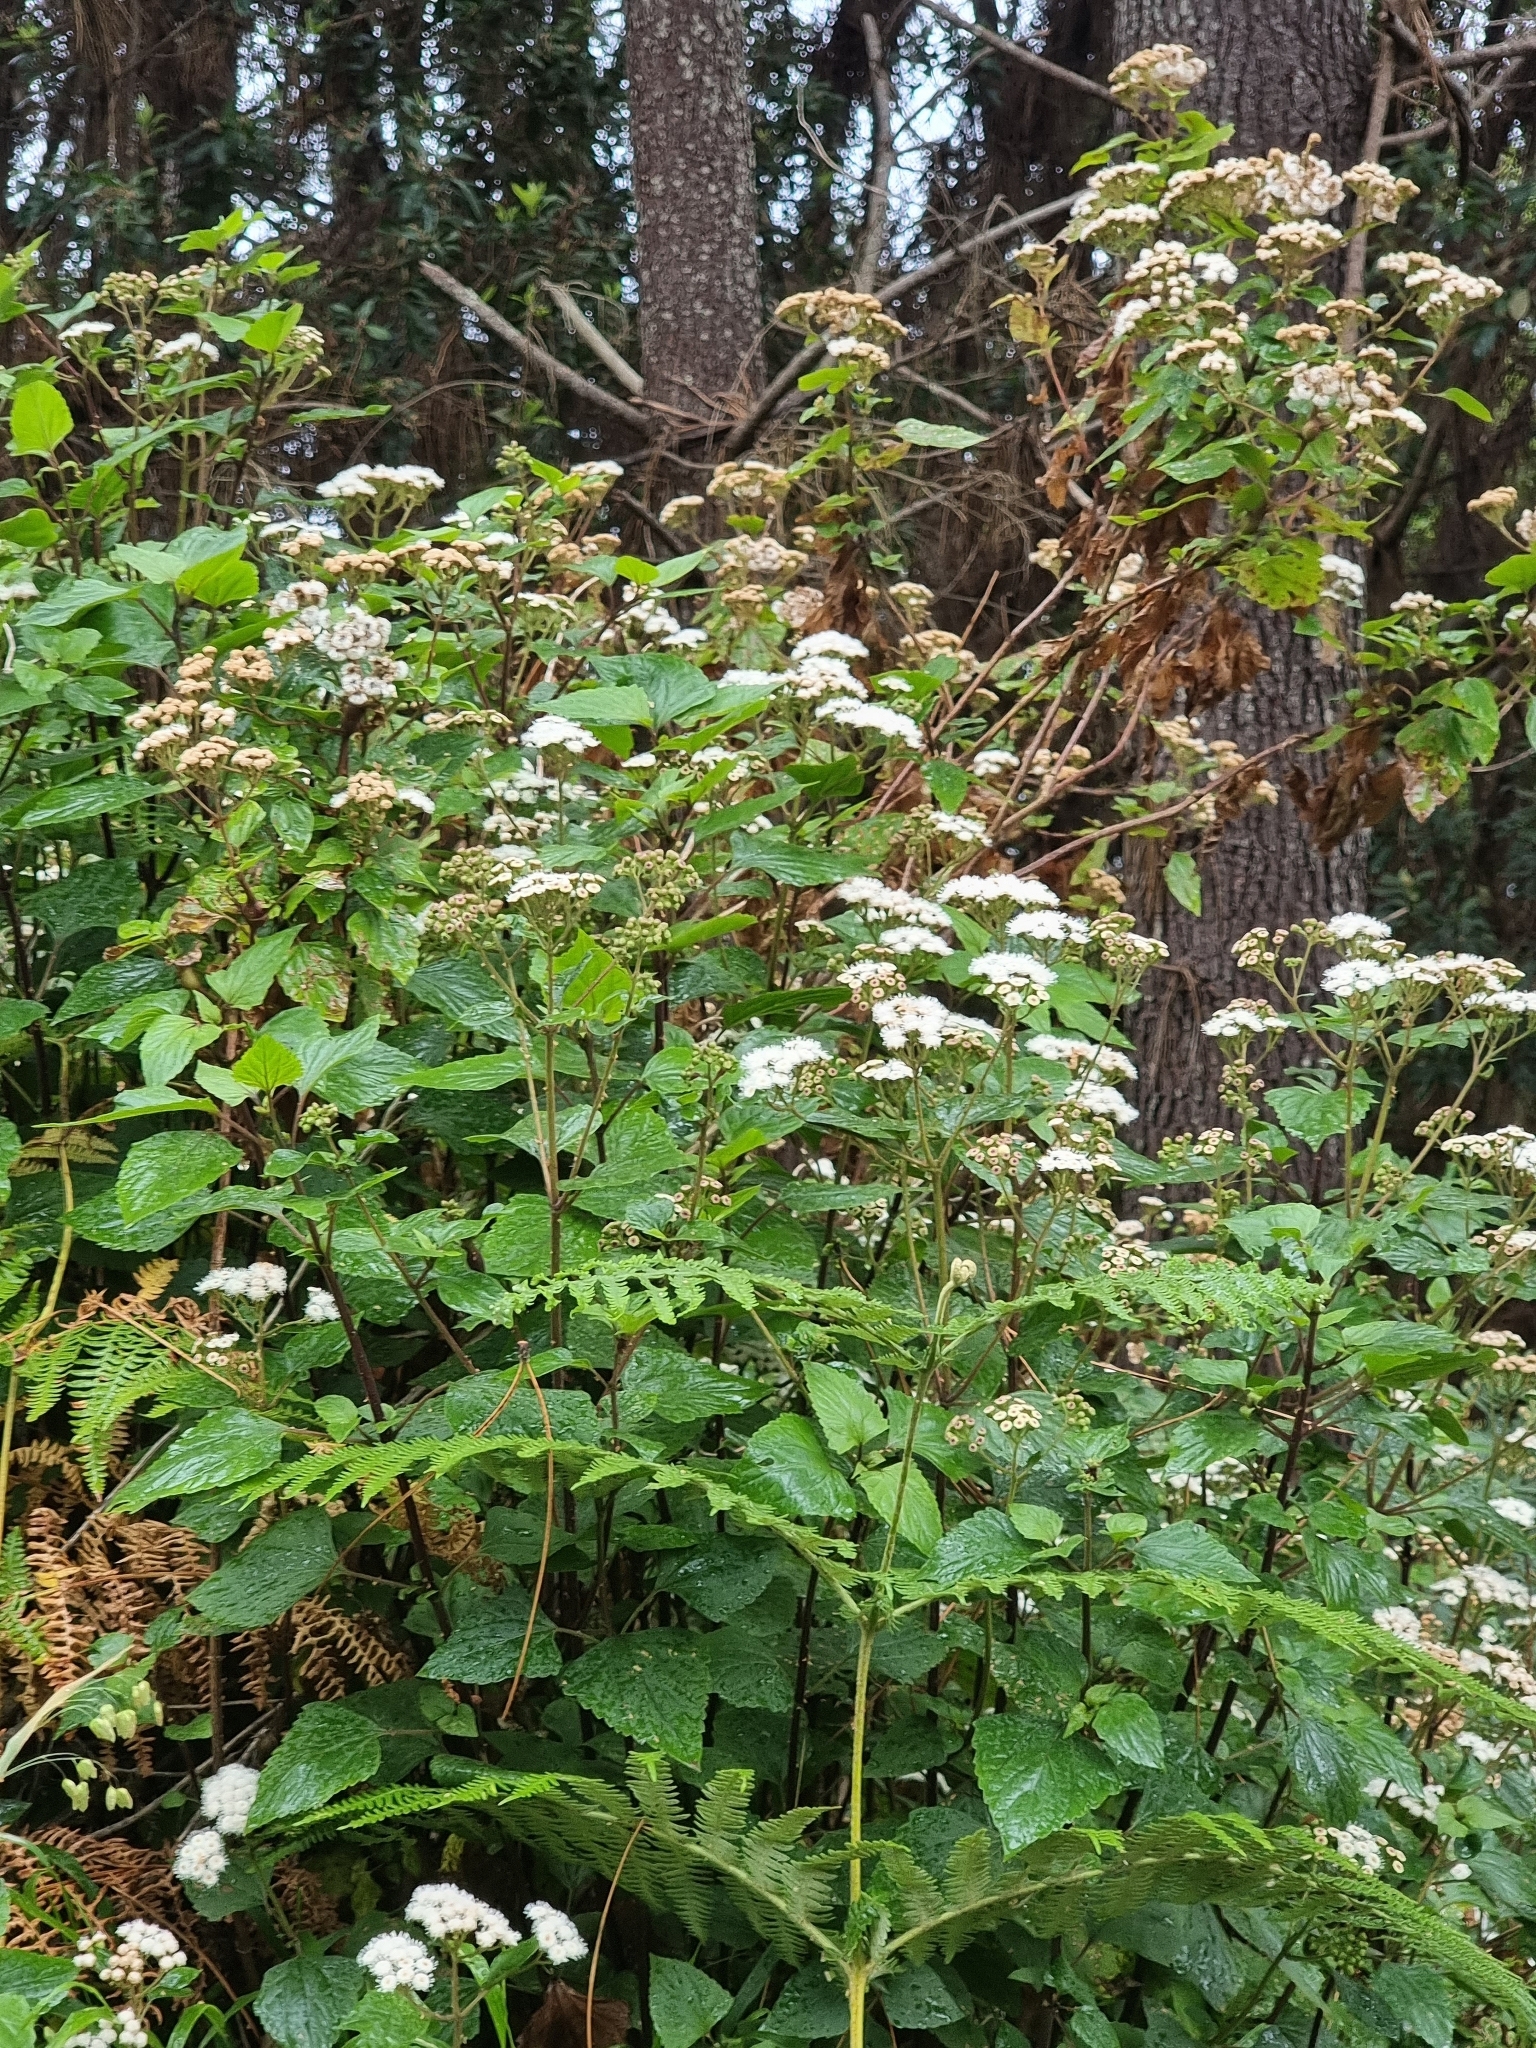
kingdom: Plantae
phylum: Tracheophyta
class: Magnoliopsida
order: Asterales
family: Asteraceae
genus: Ageratina
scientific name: Ageratina adenophora
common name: Sticky snakeroot
